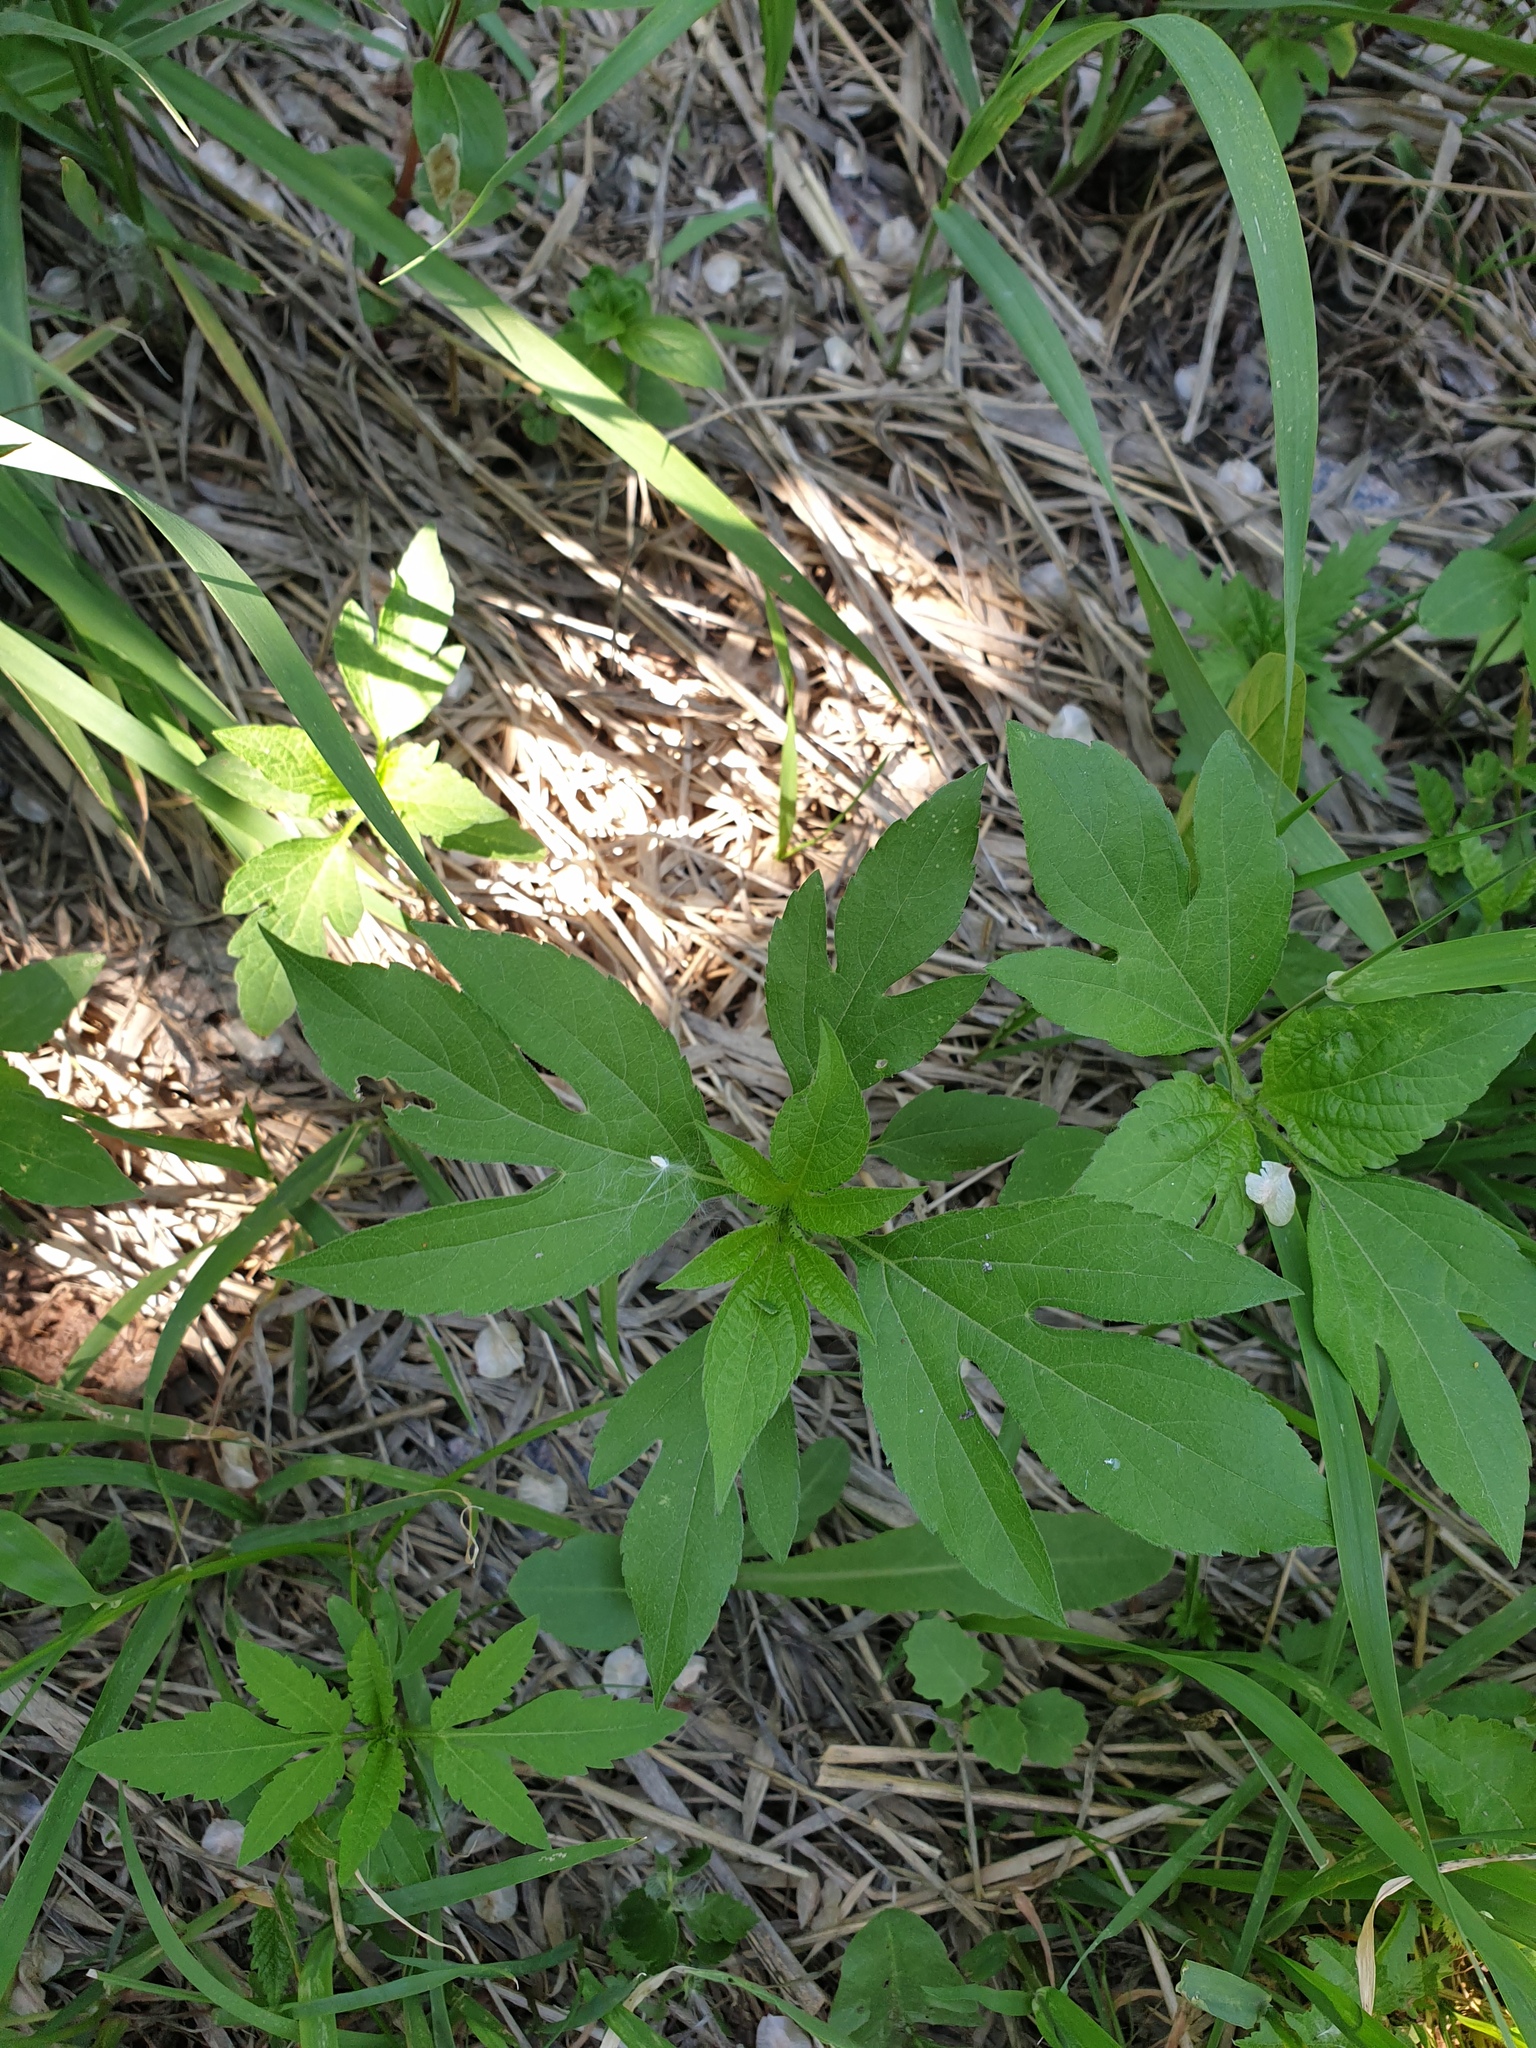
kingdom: Plantae
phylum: Tracheophyta
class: Magnoliopsida
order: Asterales
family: Asteraceae
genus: Ambrosia
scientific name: Ambrosia trifida
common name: Giant ragweed
